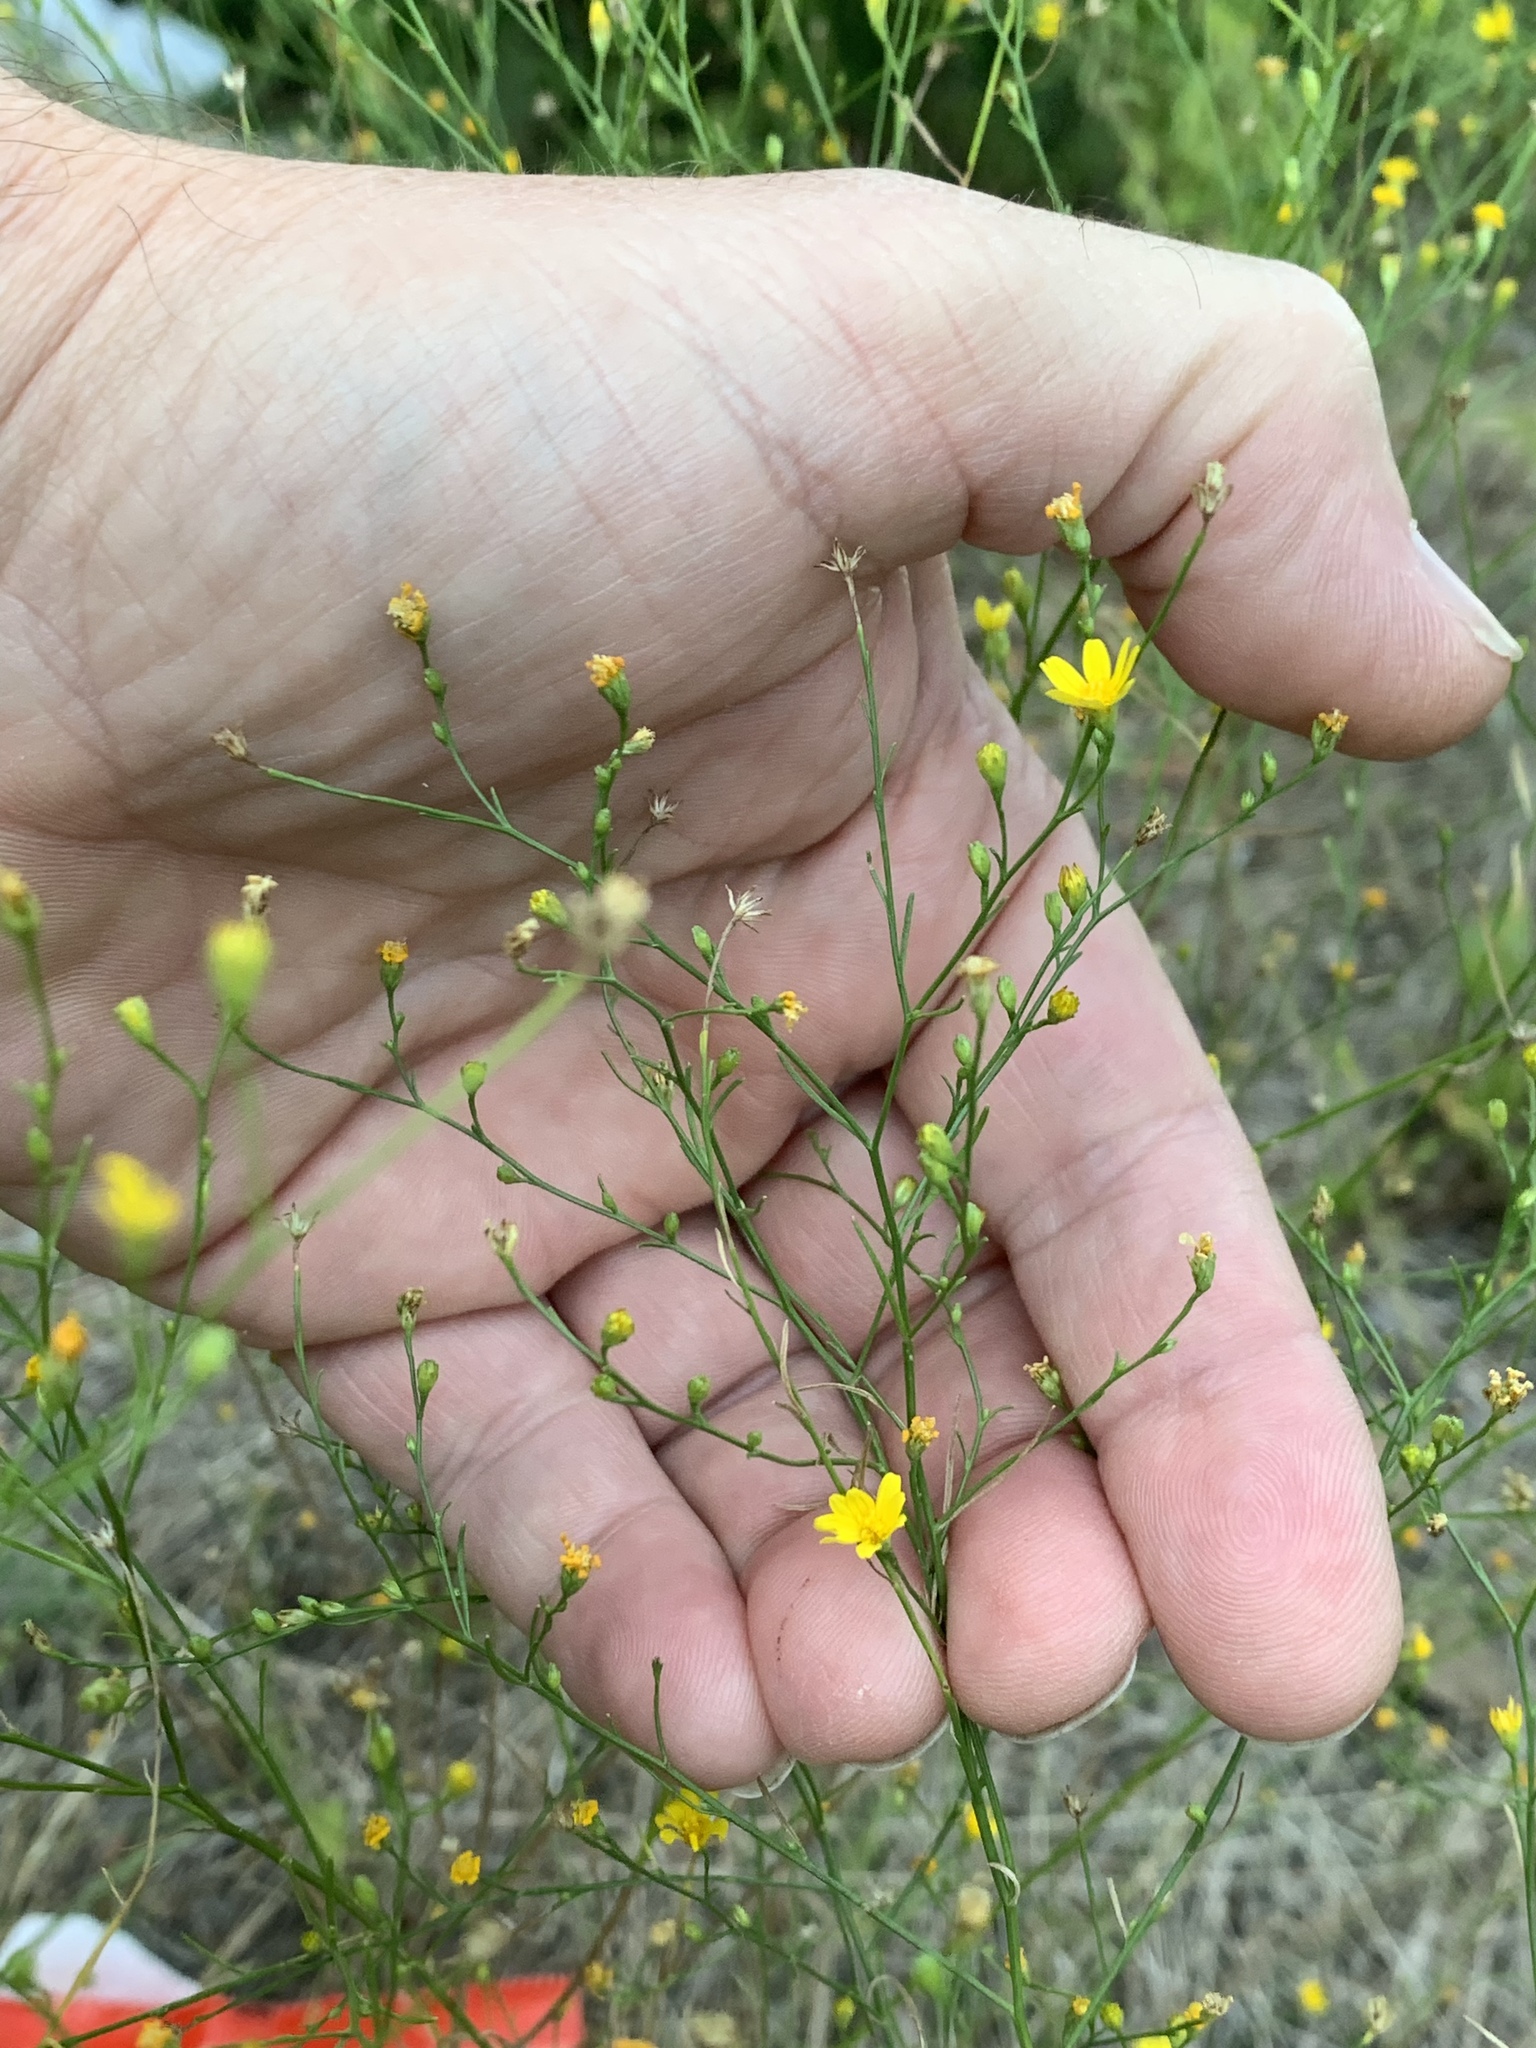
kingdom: Plantae
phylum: Tracheophyta
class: Magnoliopsida
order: Asterales
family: Asteraceae
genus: Gutierrezia
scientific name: Gutierrezia texana
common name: Texas snakeweed
